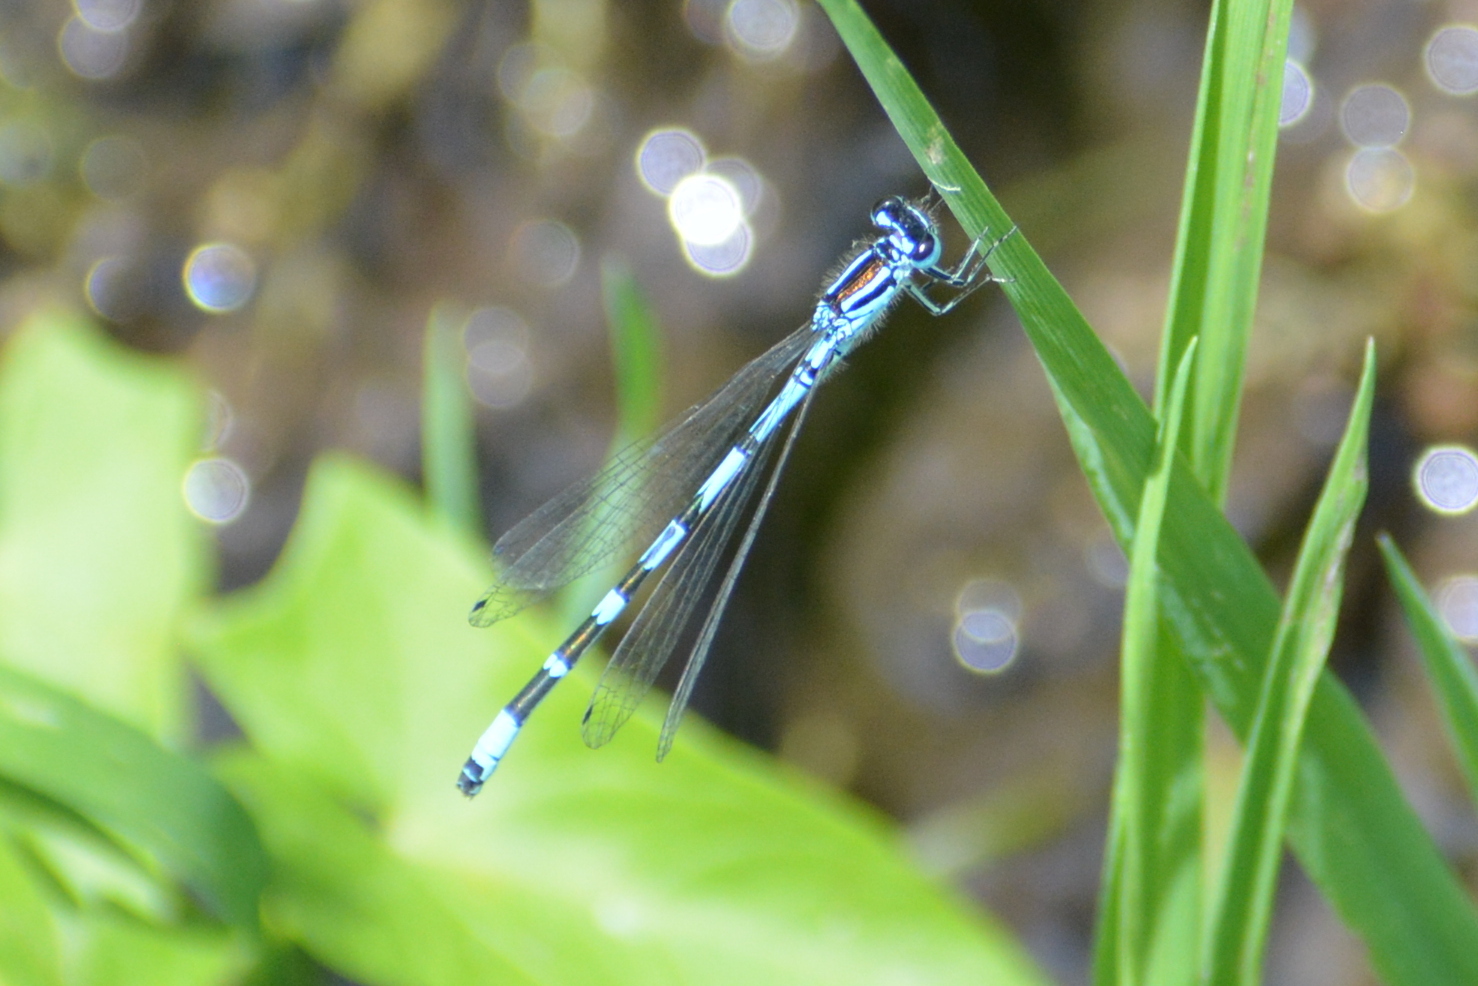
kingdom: Animalia
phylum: Arthropoda
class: Insecta
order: Odonata
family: Coenagrionidae
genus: Coenagrion
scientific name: Coenagrion ornatum
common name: Ornate bluet
